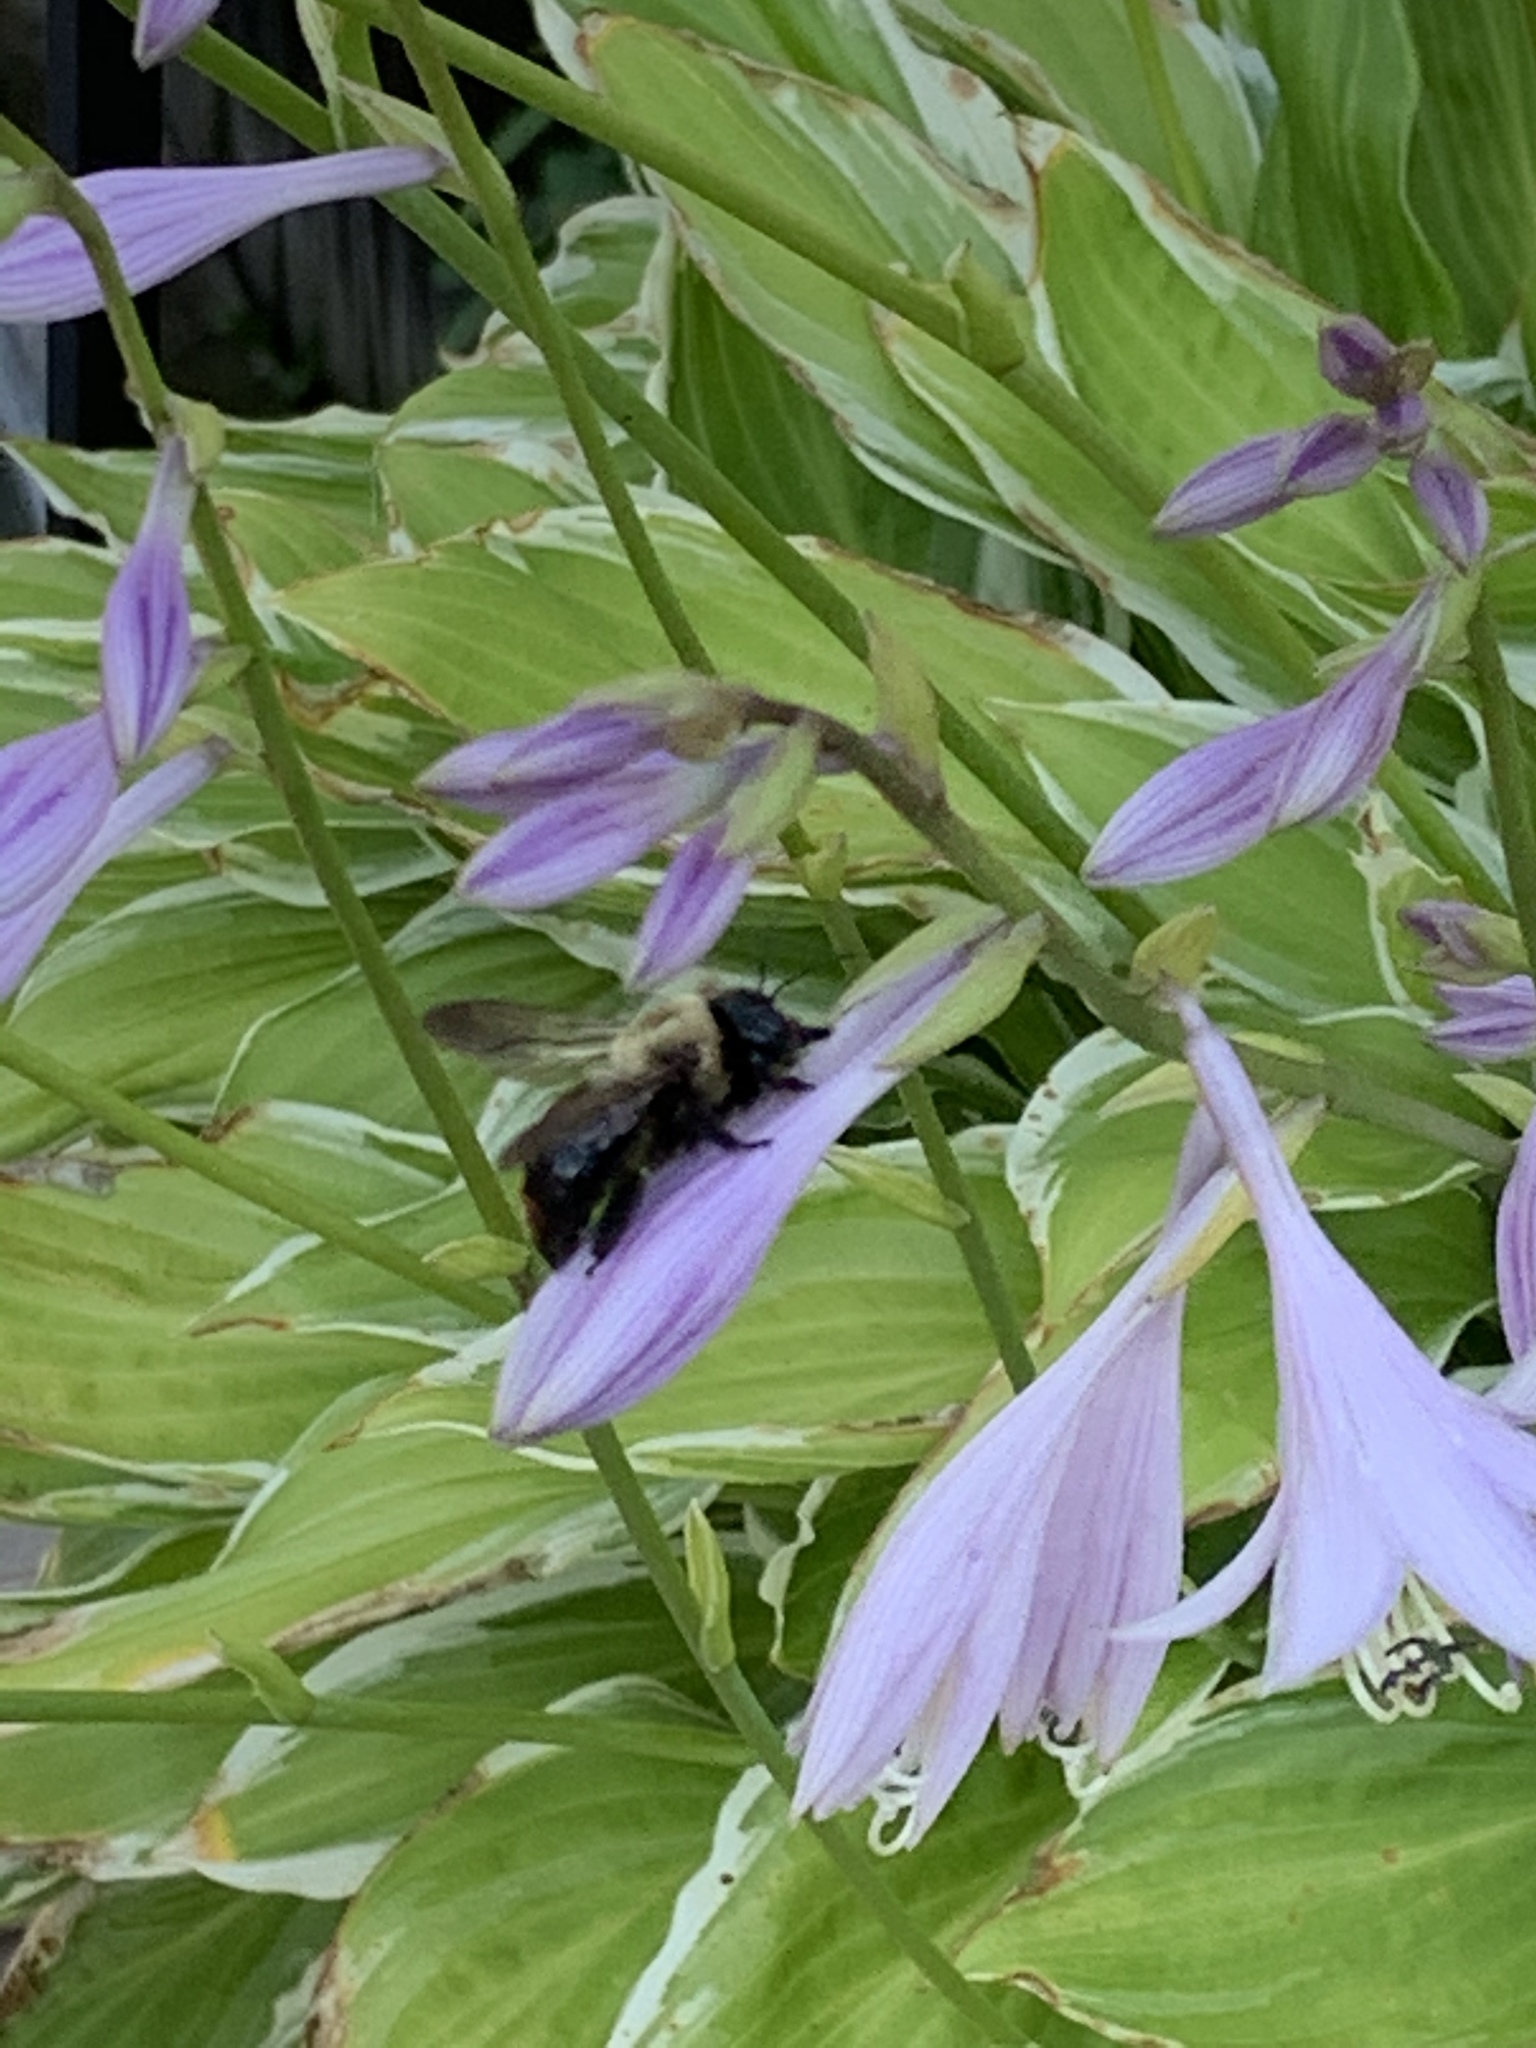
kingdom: Animalia
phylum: Arthropoda
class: Insecta
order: Hymenoptera
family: Apidae
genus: Xylocopa
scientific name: Xylocopa virginica
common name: Carpenter bee
